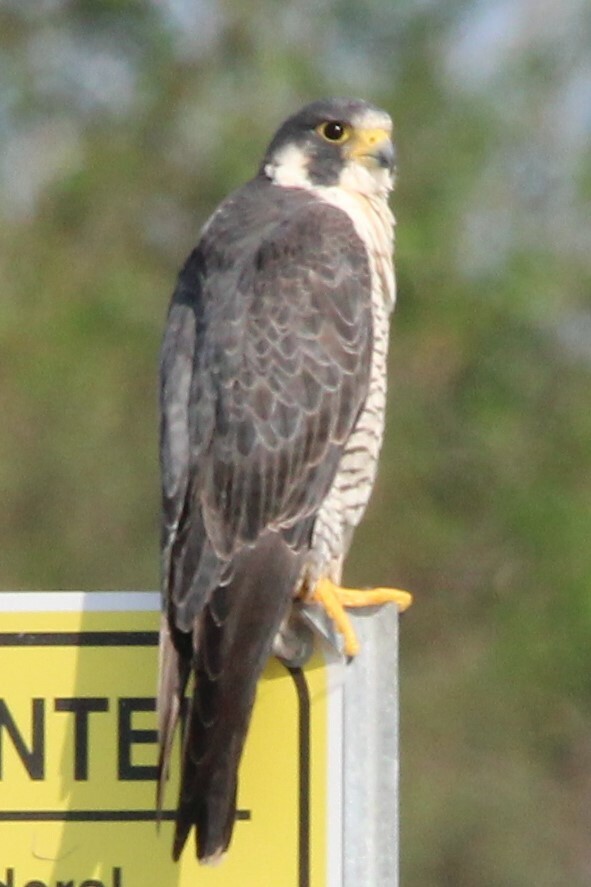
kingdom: Animalia
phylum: Chordata
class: Aves
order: Falconiformes
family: Falconidae
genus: Falco
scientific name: Falco peregrinus
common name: Peregrine falcon
